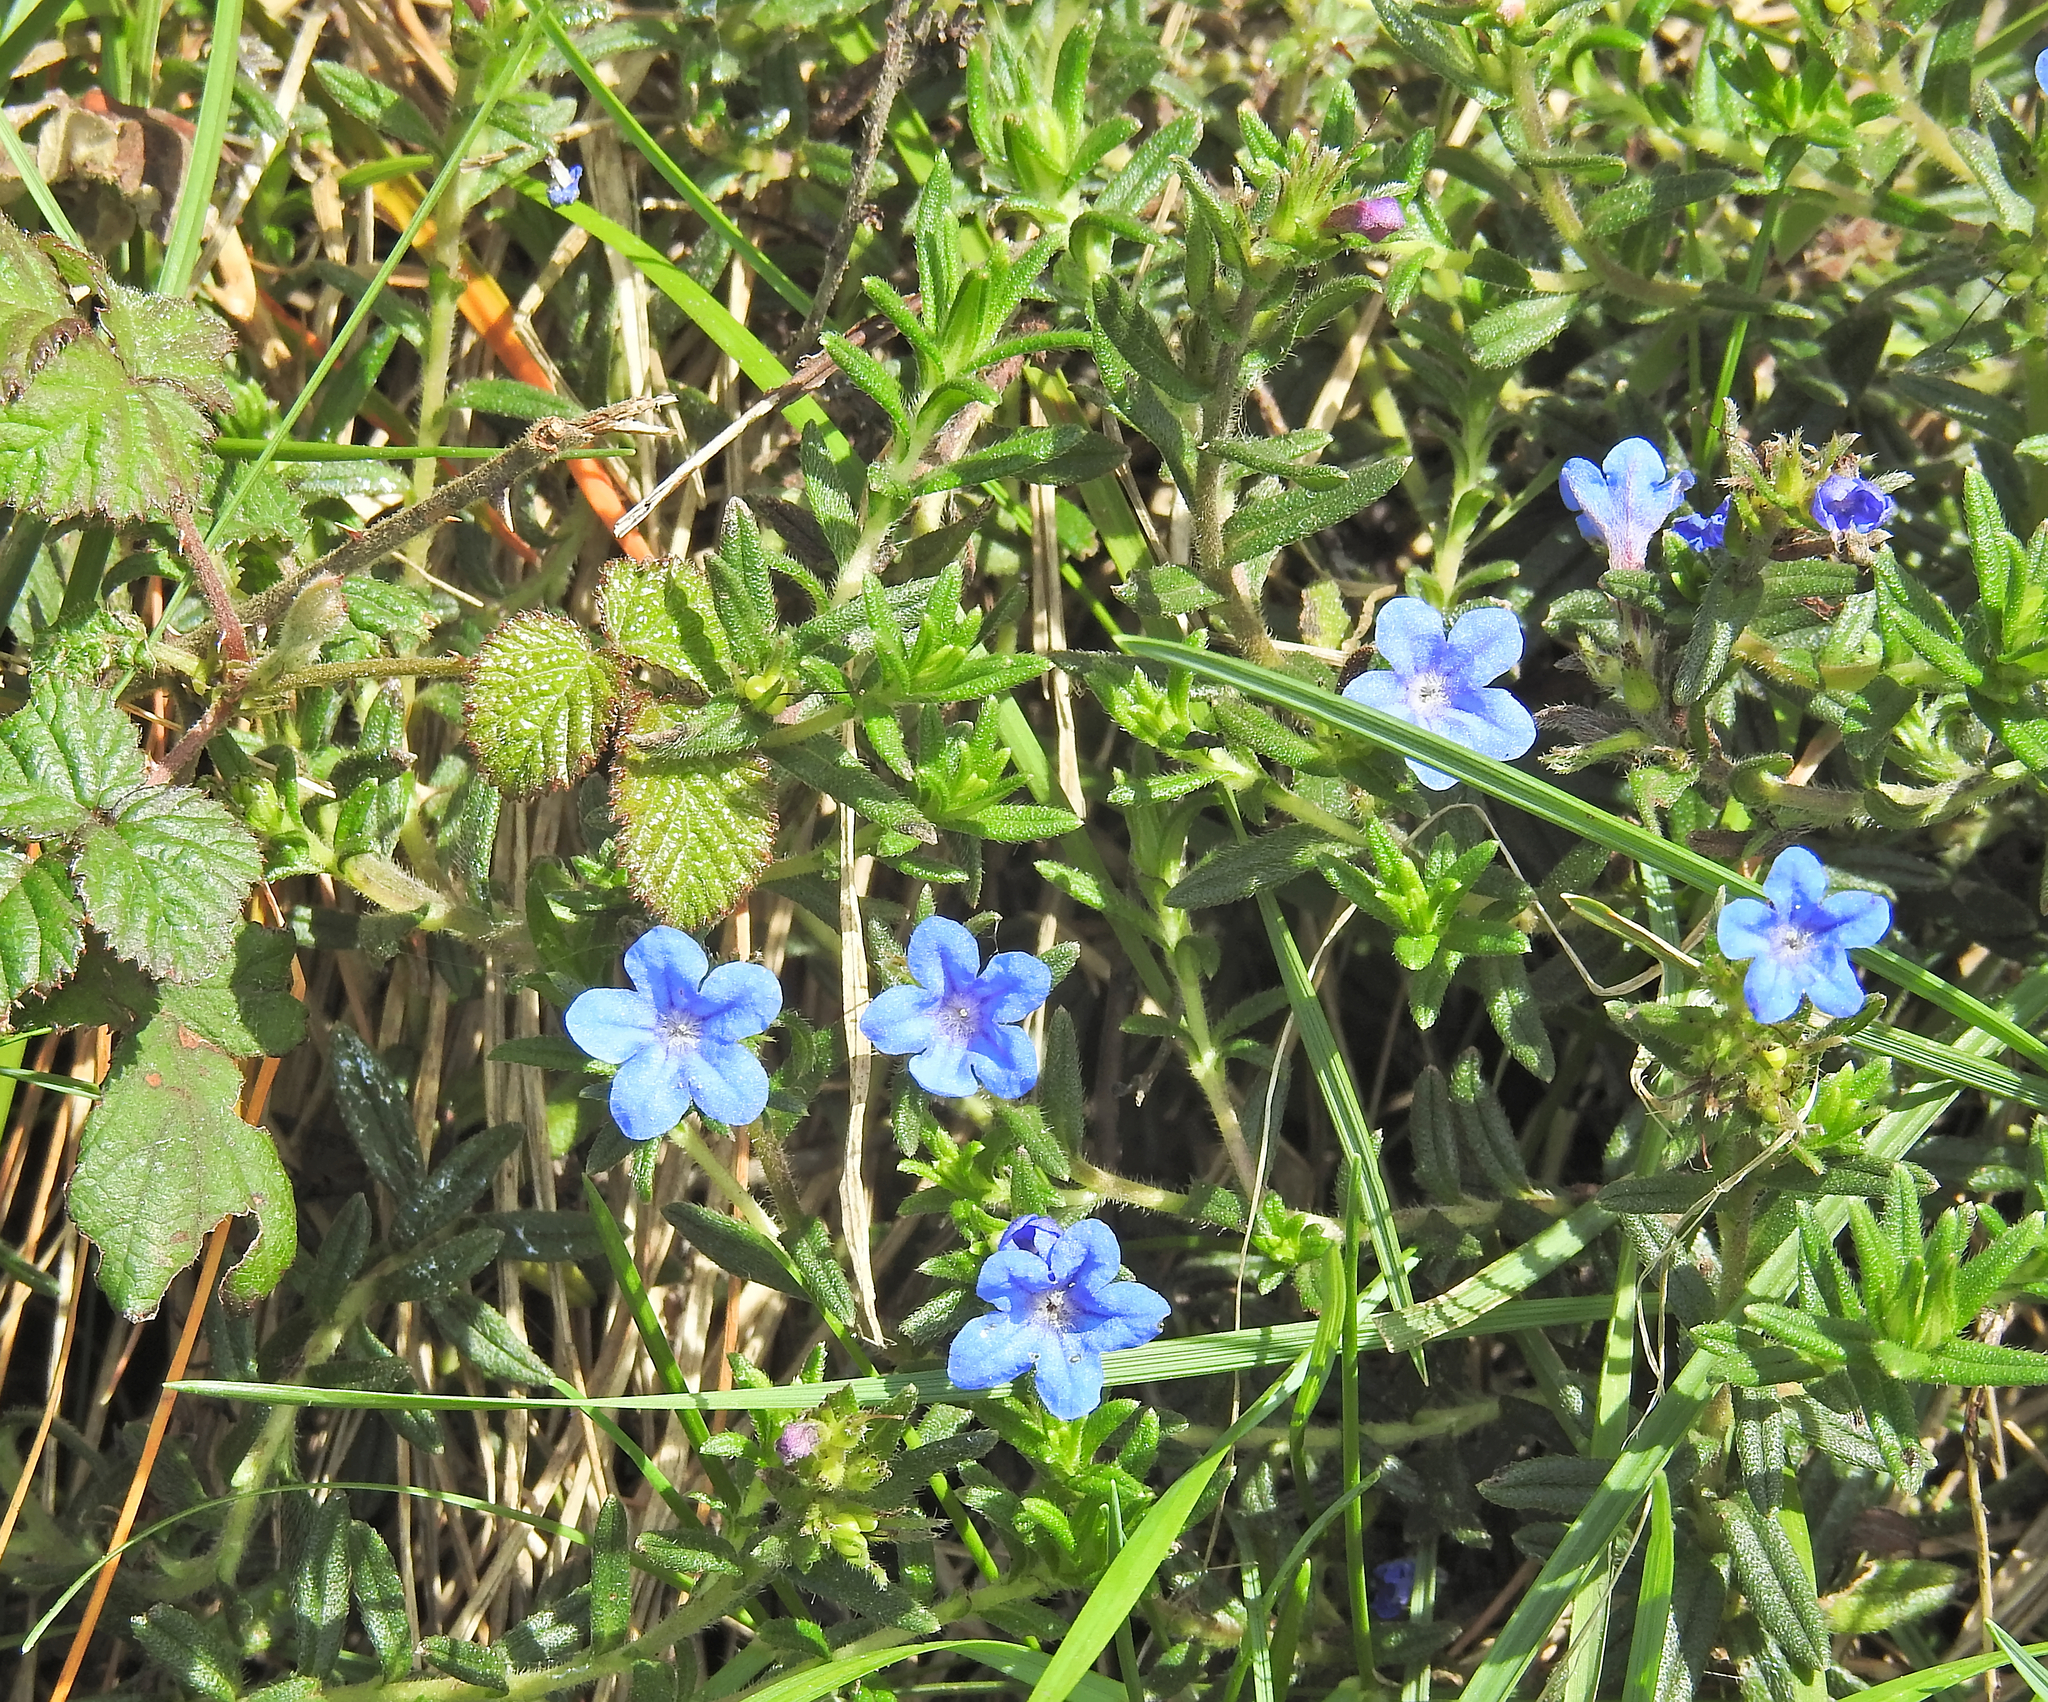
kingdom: Plantae
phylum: Tracheophyta
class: Magnoliopsida
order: Boraginales
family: Boraginaceae
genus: Glandora
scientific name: Glandora prostrata
